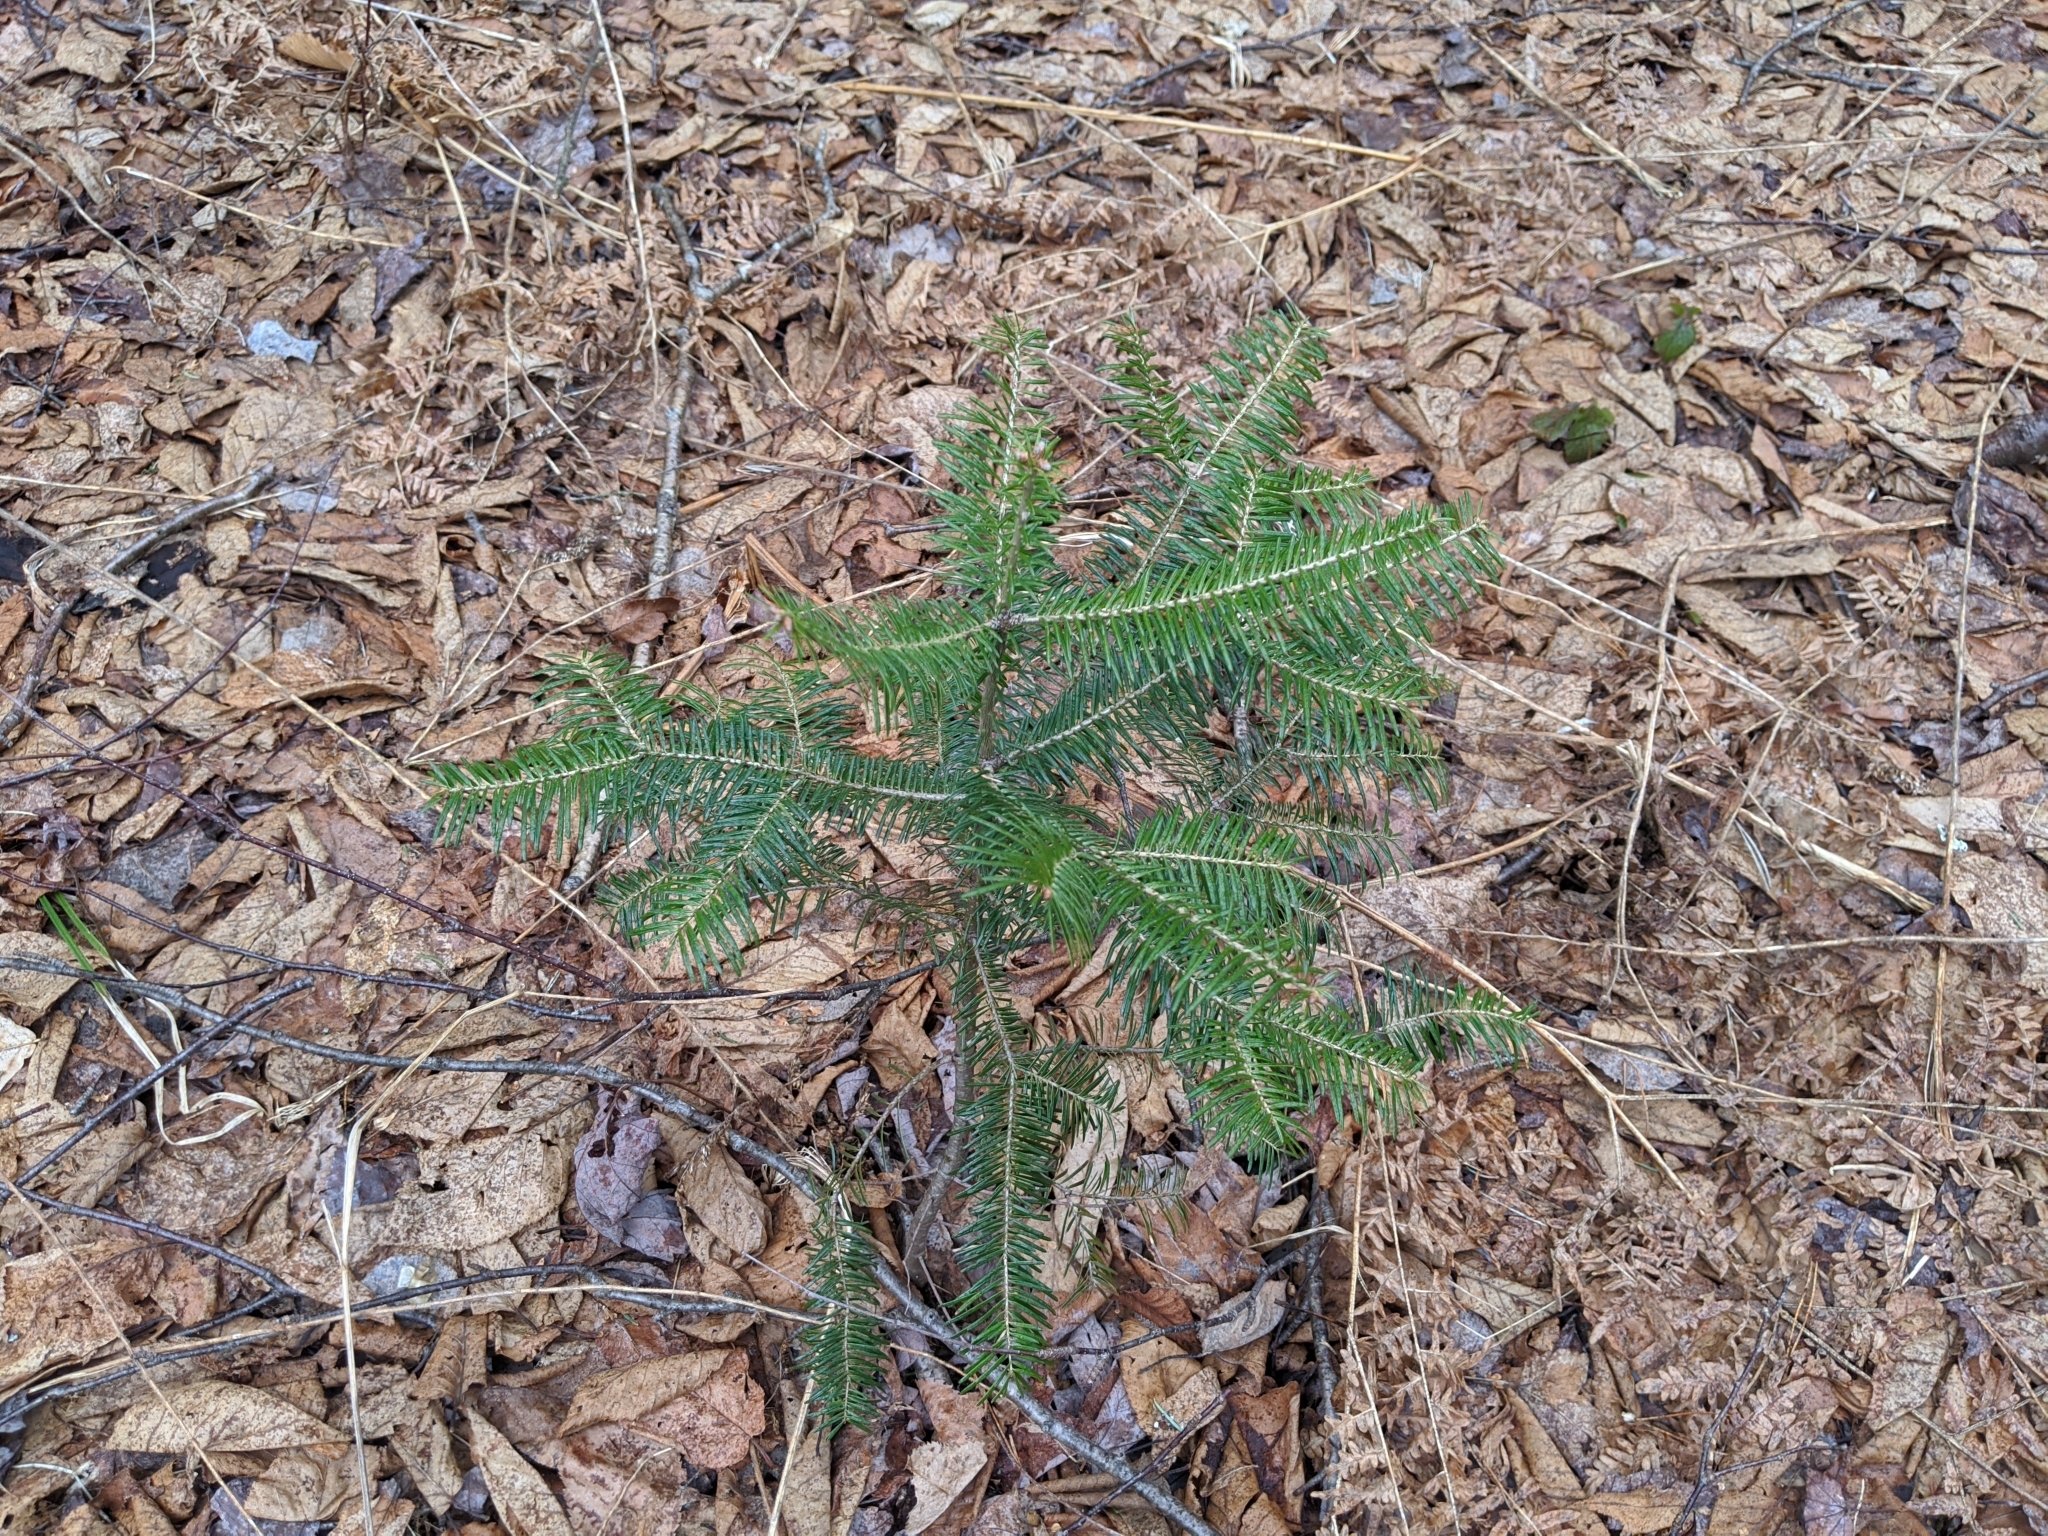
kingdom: Plantae
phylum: Tracheophyta
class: Pinopsida
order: Pinales
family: Pinaceae
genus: Abies
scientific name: Abies balsamea
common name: Balsam fir
